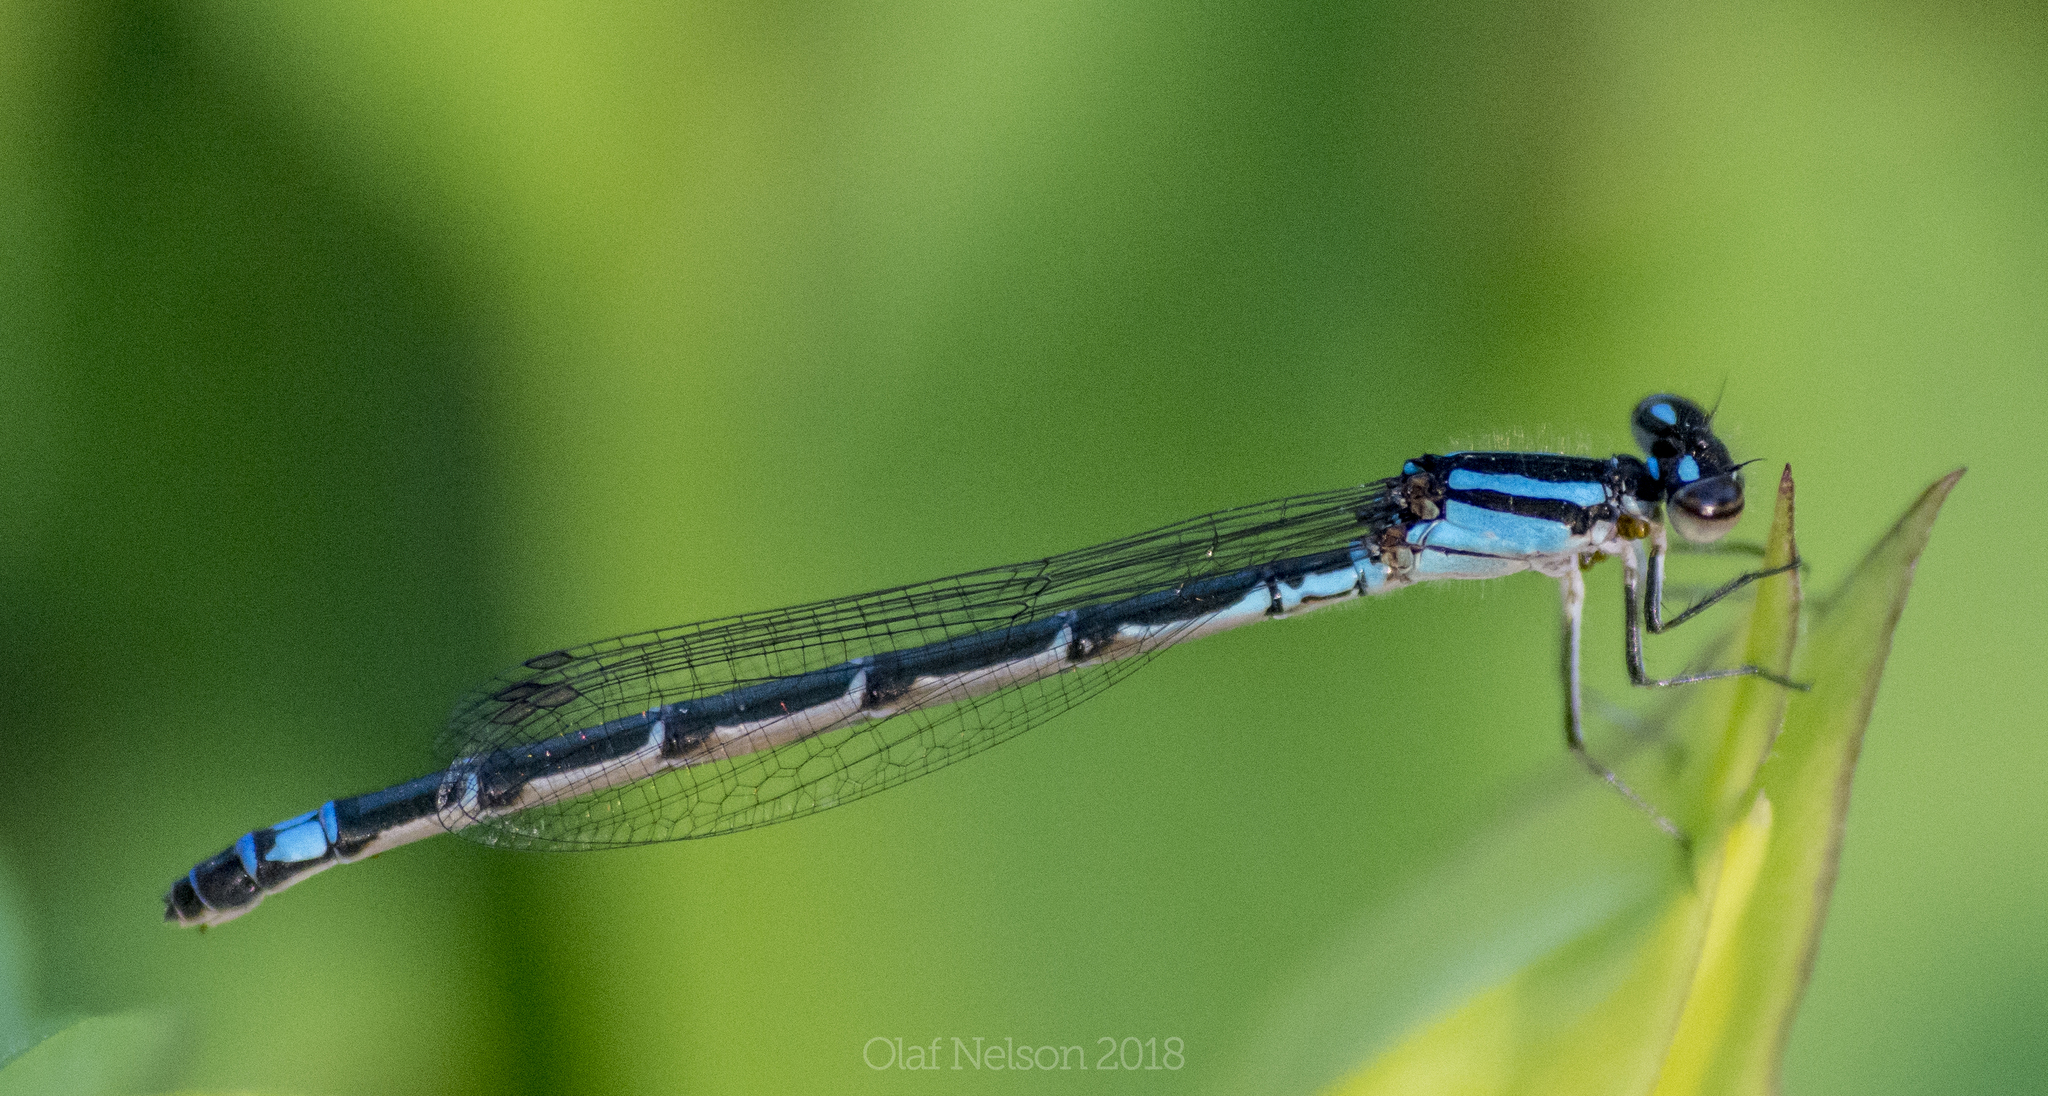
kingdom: Animalia
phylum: Arthropoda
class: Insecta
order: Odonata
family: Coenagrionidae
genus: Enallagma
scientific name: Enallagma geminatum
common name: Skimming bluet
